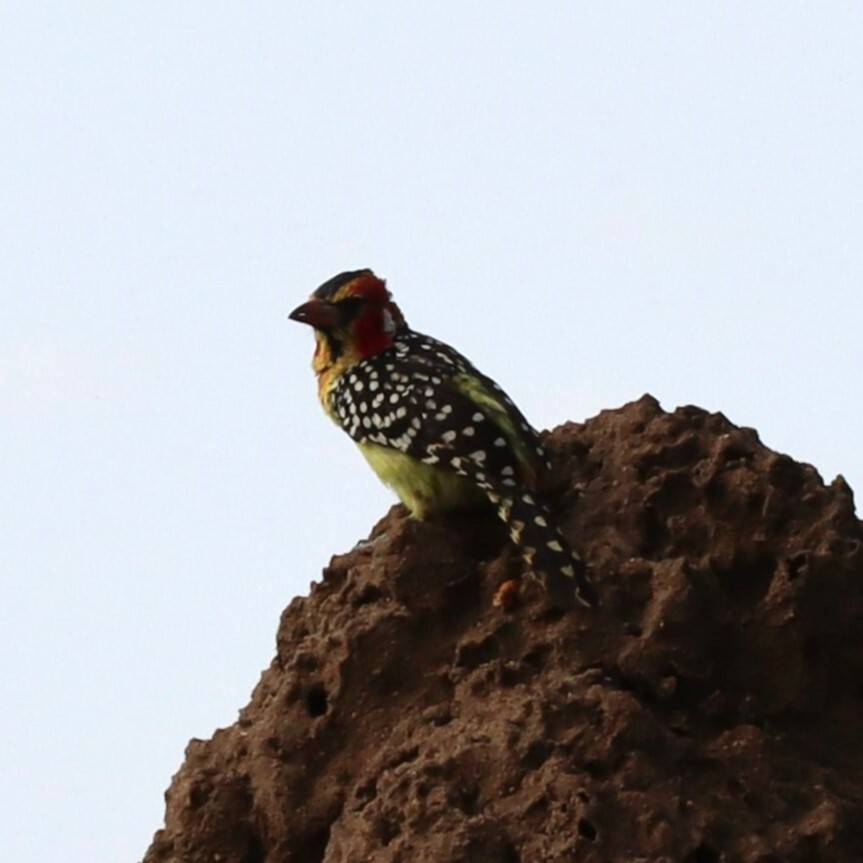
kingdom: Animalia
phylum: Chordata
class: Aves
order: Piciformes
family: Lybiidae
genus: Trachyphonus
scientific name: Trachyphonus erythrocephalus
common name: Red-and-yellow barbet
